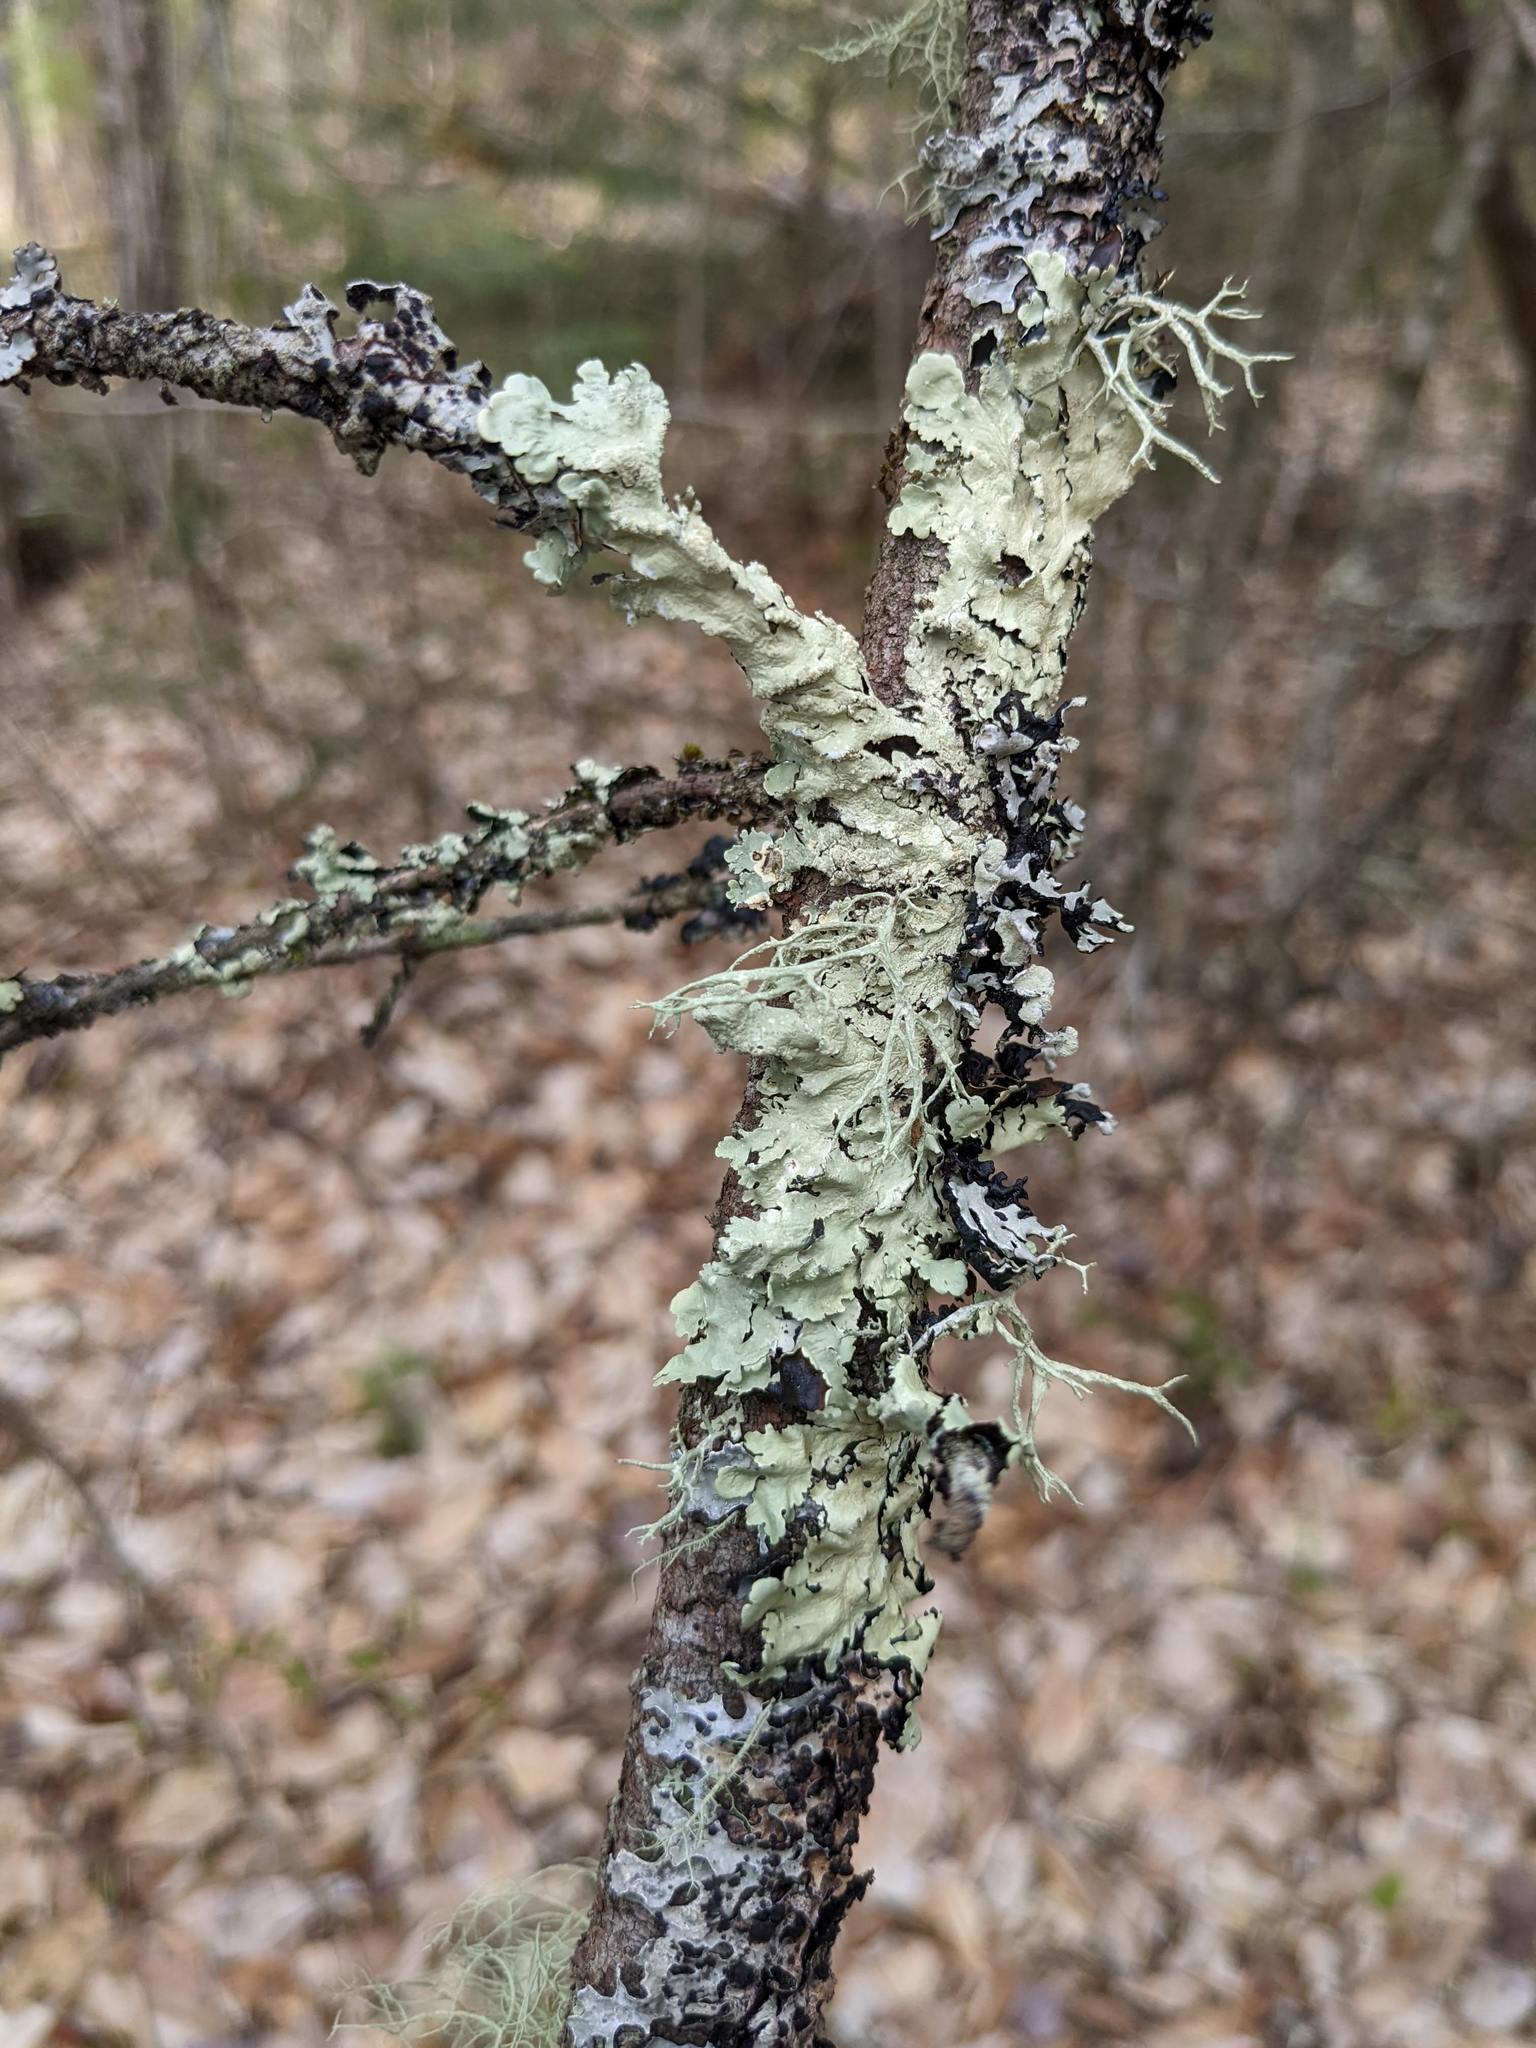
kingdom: Fungi
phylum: Ascomycota
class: Lecanoromycetes
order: Lecanorales
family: Parmeliaceae
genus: Flavoparmelia
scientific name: Flavoparmelia caperata
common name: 40-mile per hour lichen
